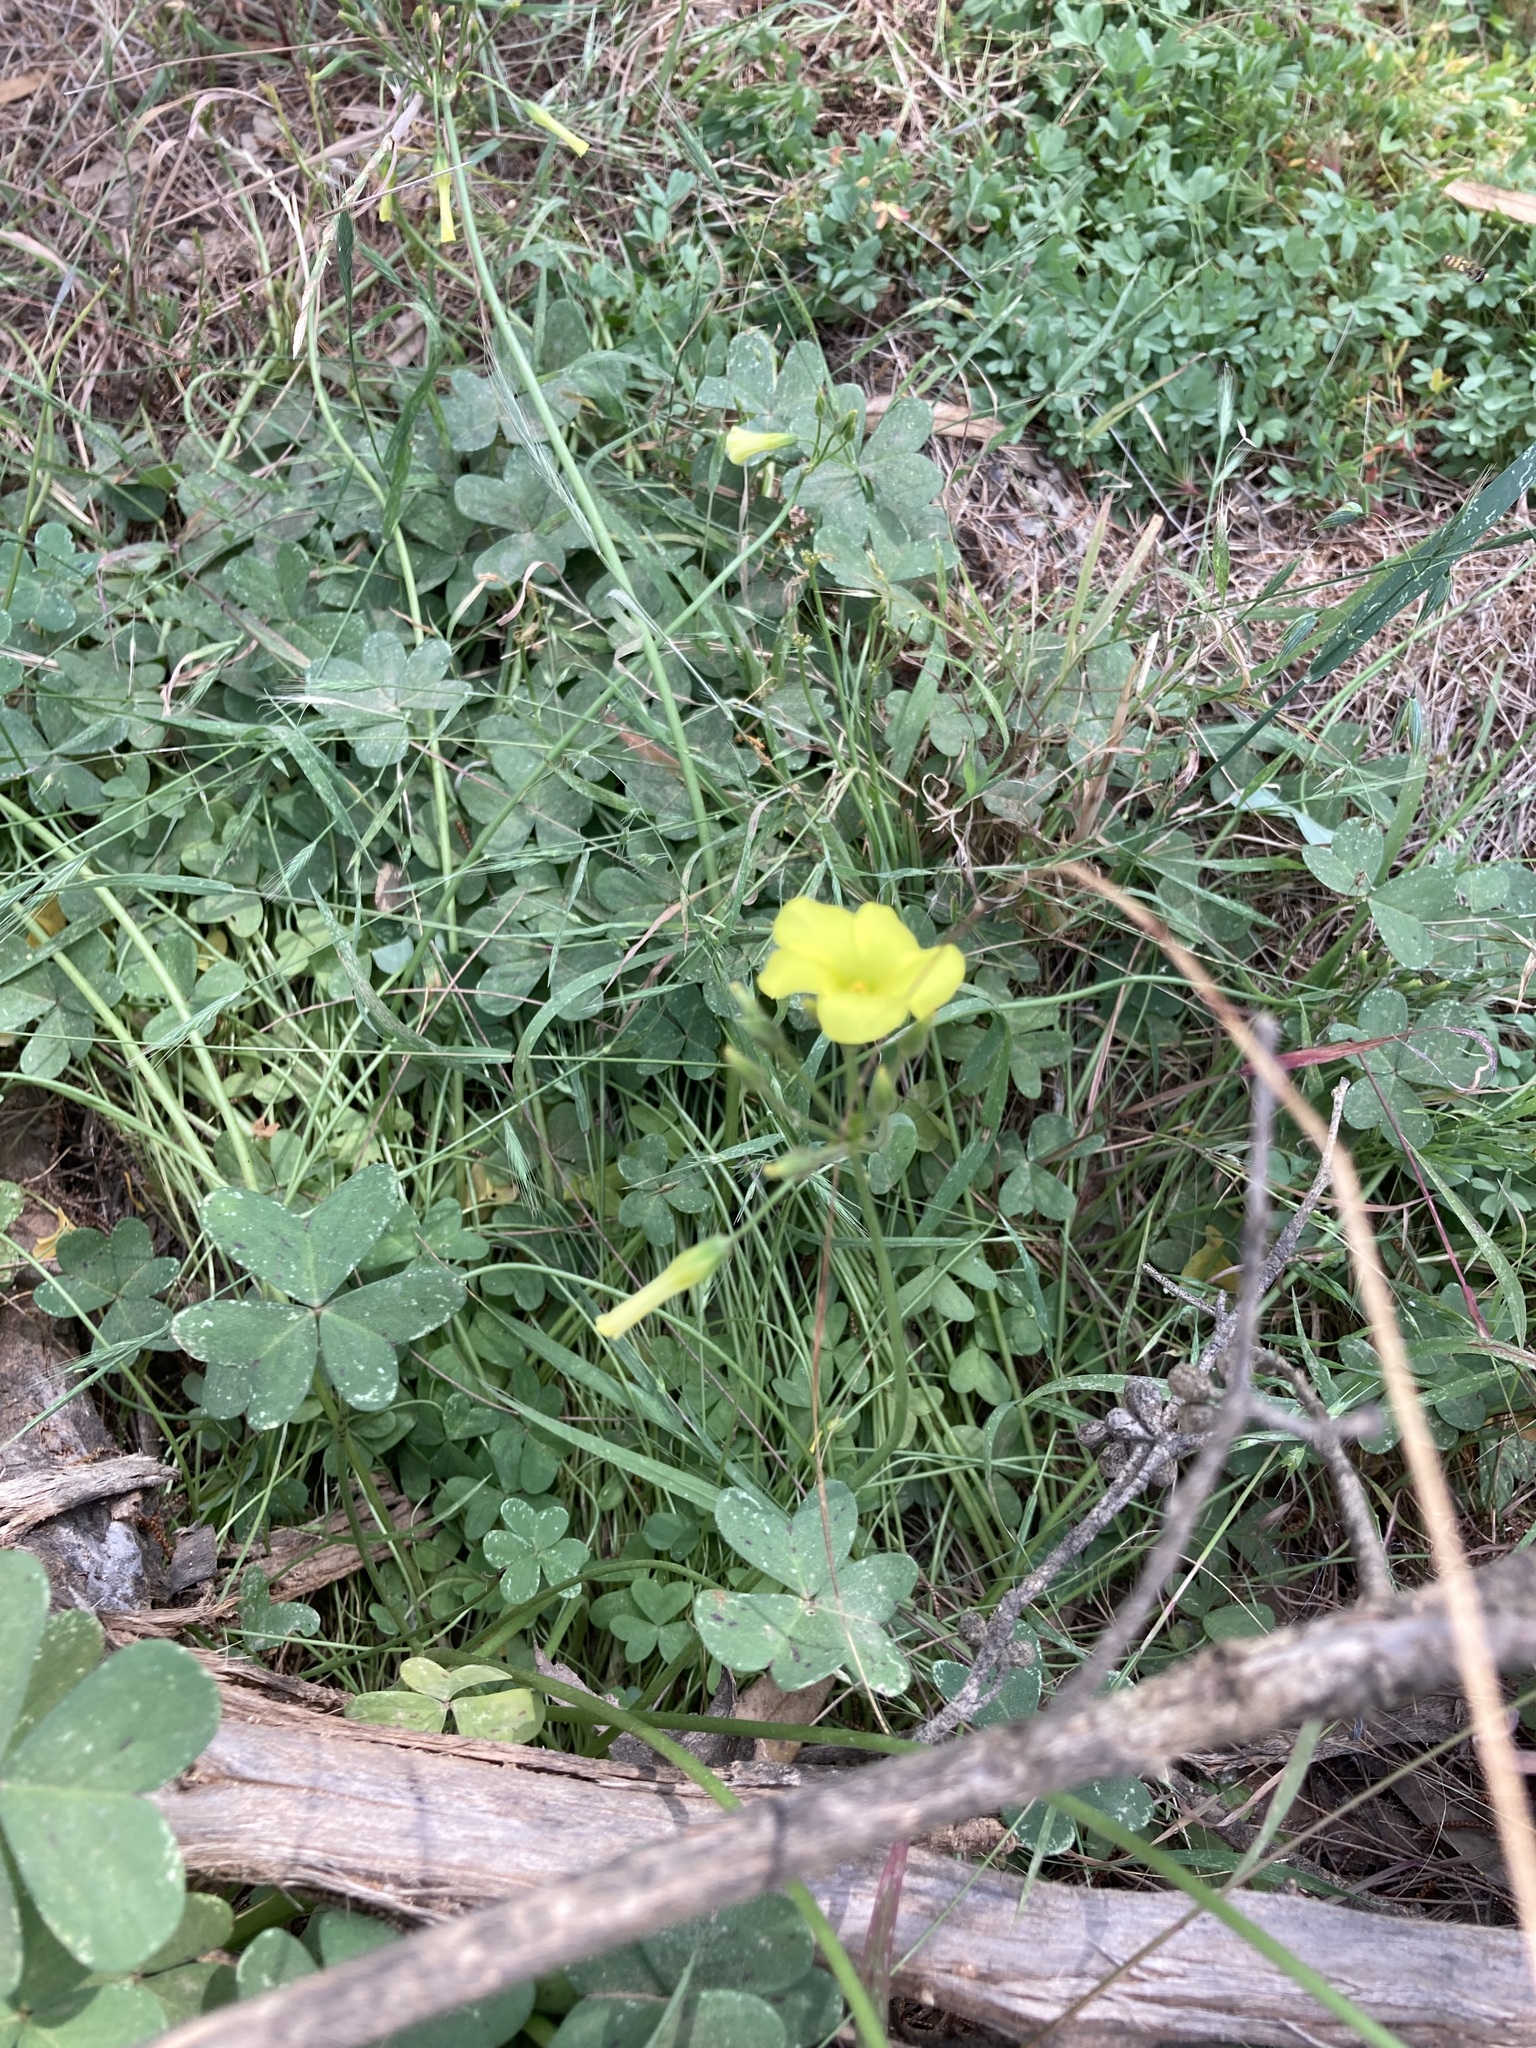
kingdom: Plantae
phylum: Tracheophyta
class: Magnoliopsida
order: Oxalidales
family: Oxalidaceae
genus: Oxalis
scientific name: Oxalis pes-caprae
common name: Bermuda-buttercup
